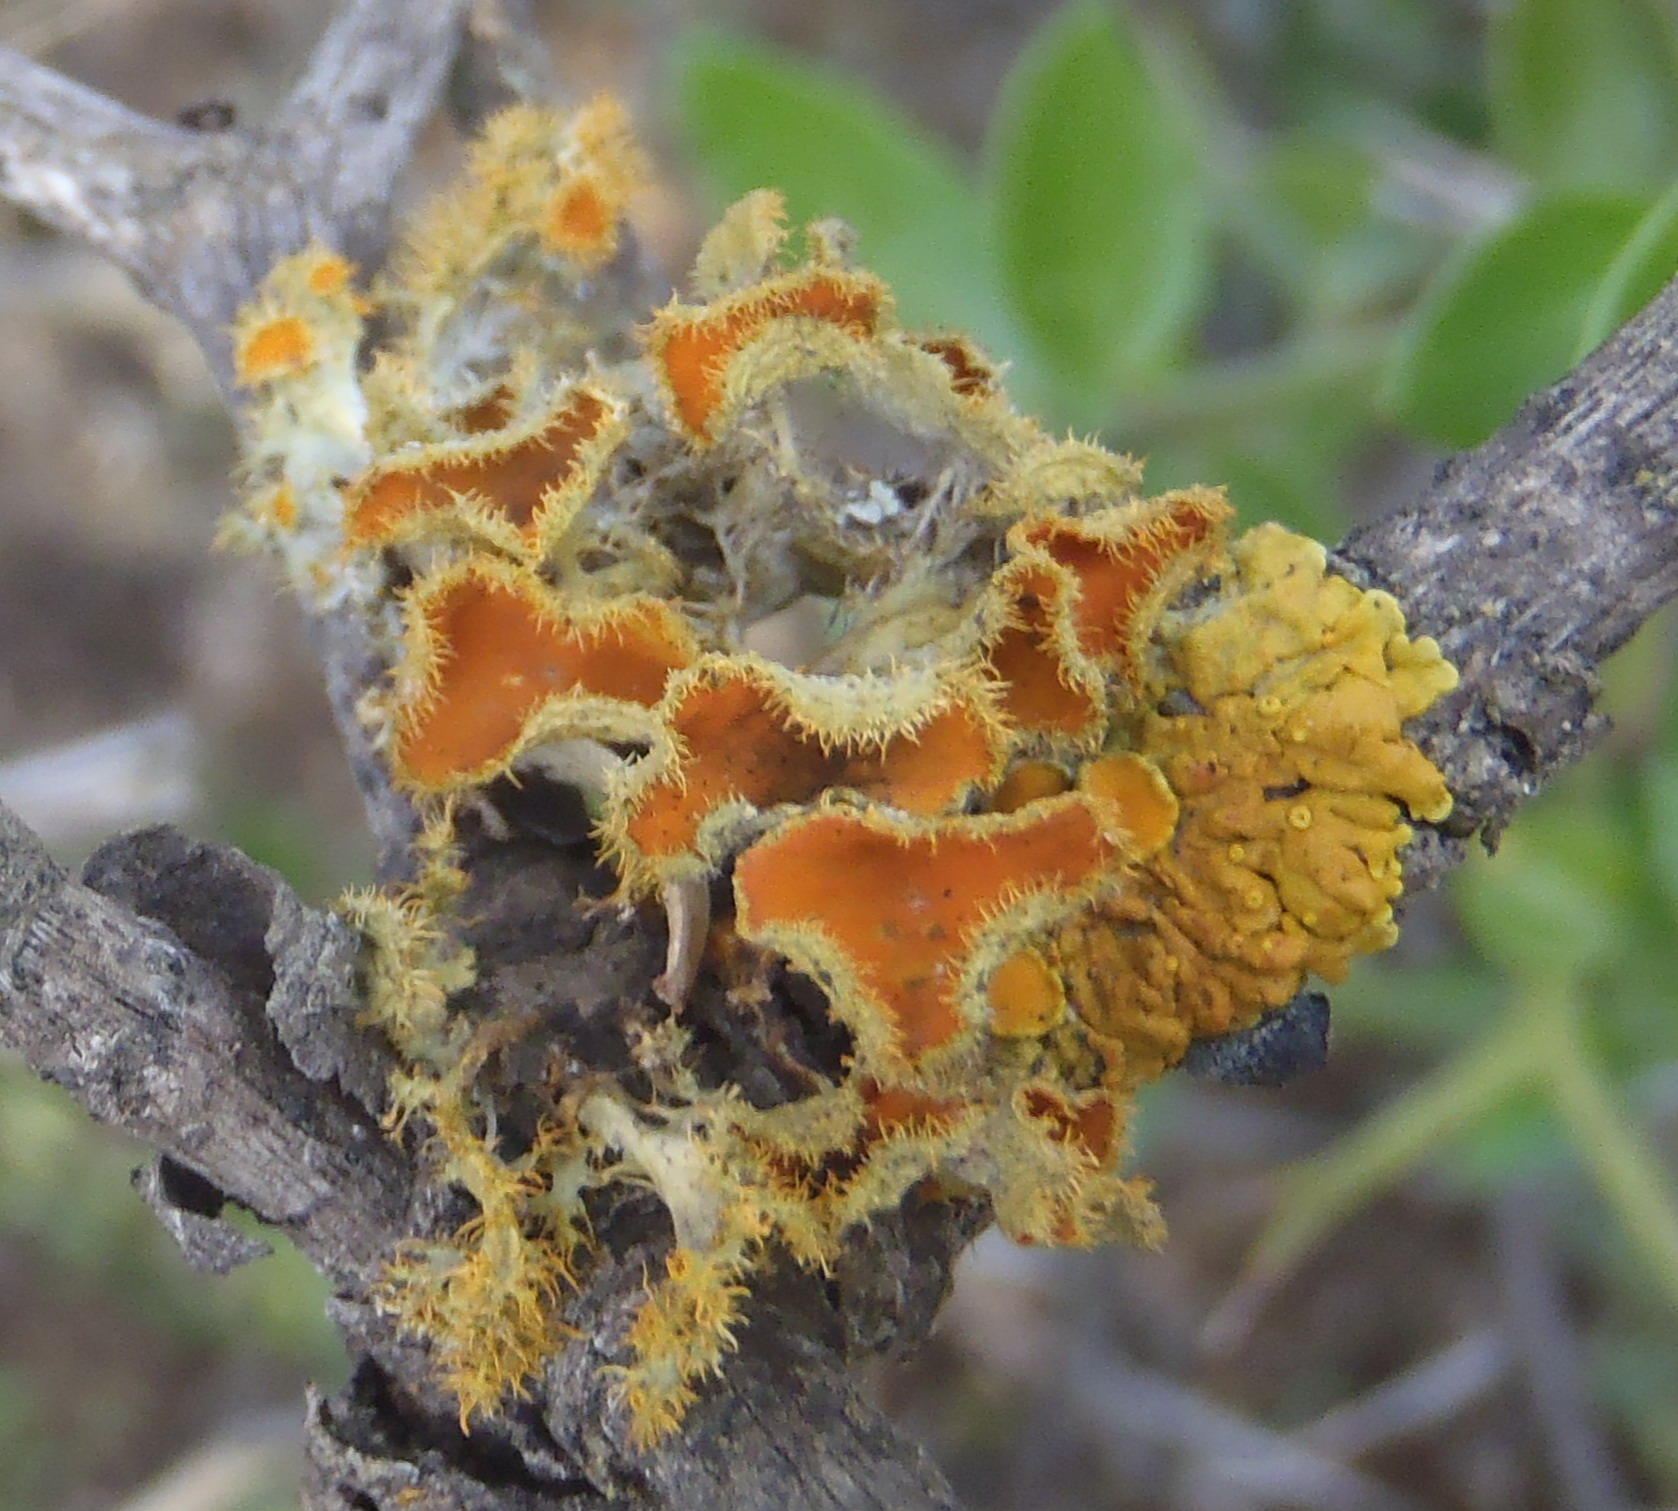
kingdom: Fungi
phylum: Ascomycota
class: Lecanoromycetes
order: Teloschistales
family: Teloschistaceae
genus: Niorma
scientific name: Niorma chrysophthalma
